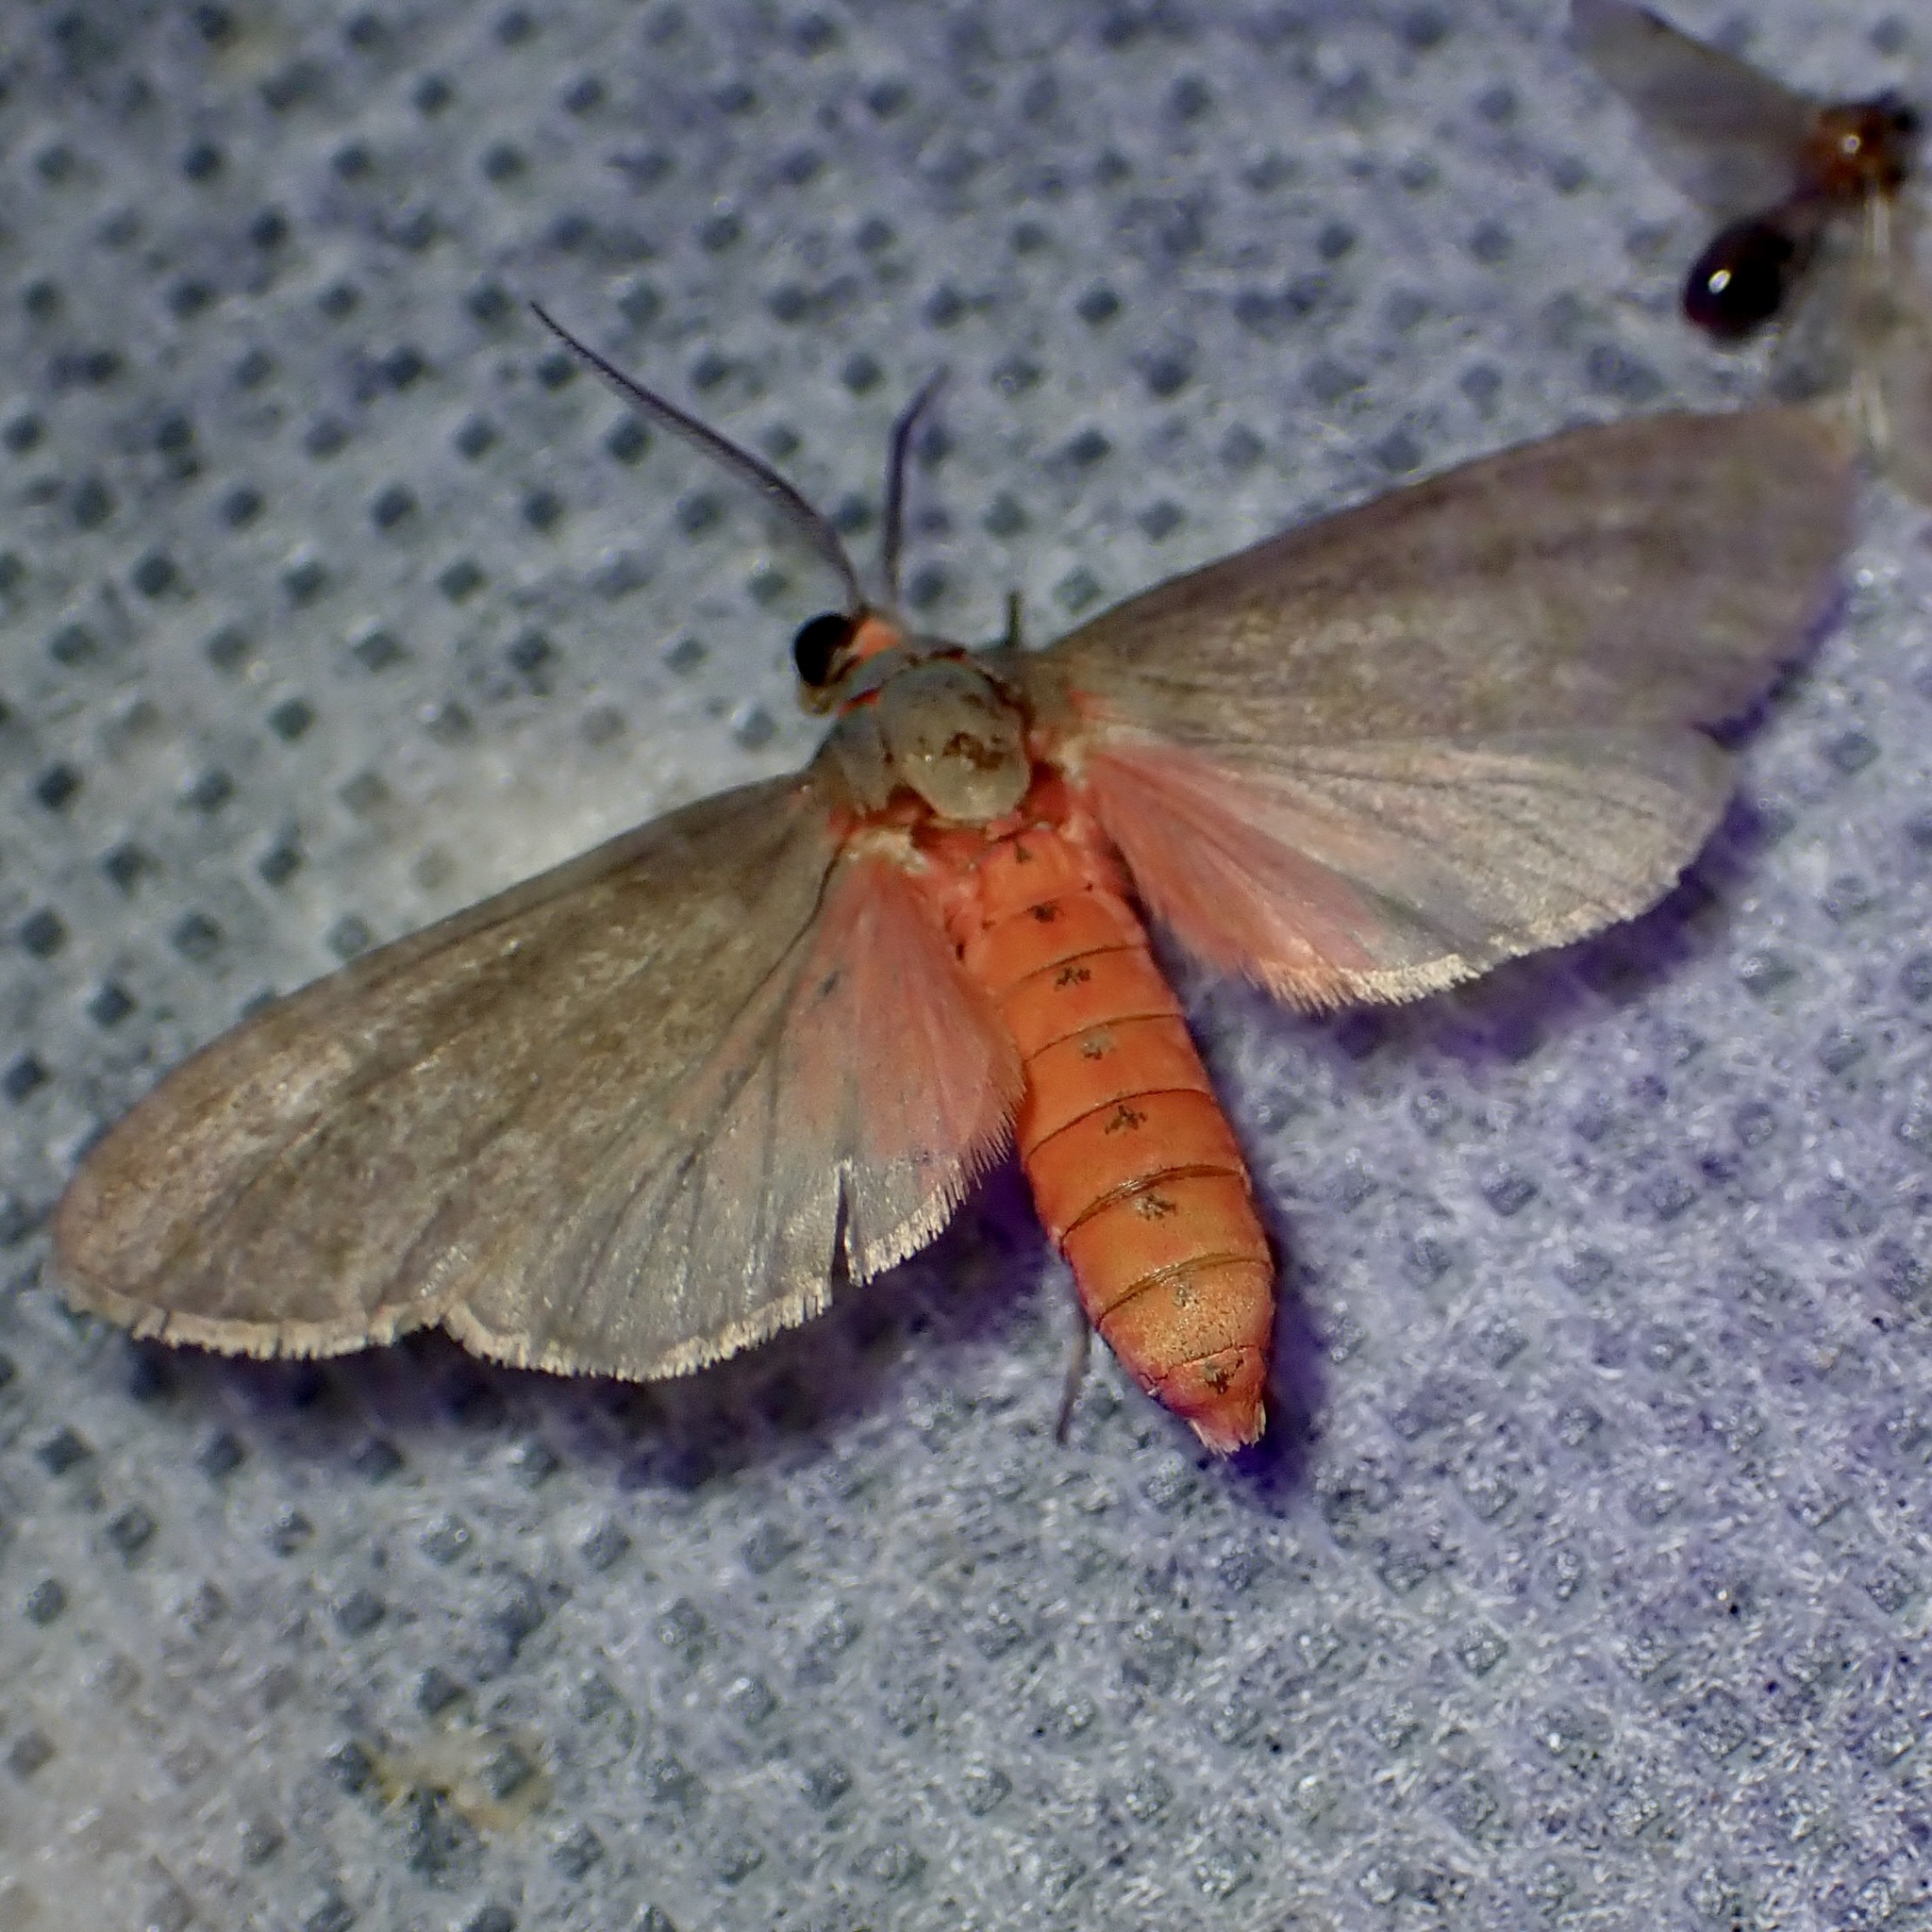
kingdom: Animalia
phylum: Arthropoda
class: Insecta
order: Lepidoptera
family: Erebidae
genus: Euchaetes
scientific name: Euchaetes perlevis
